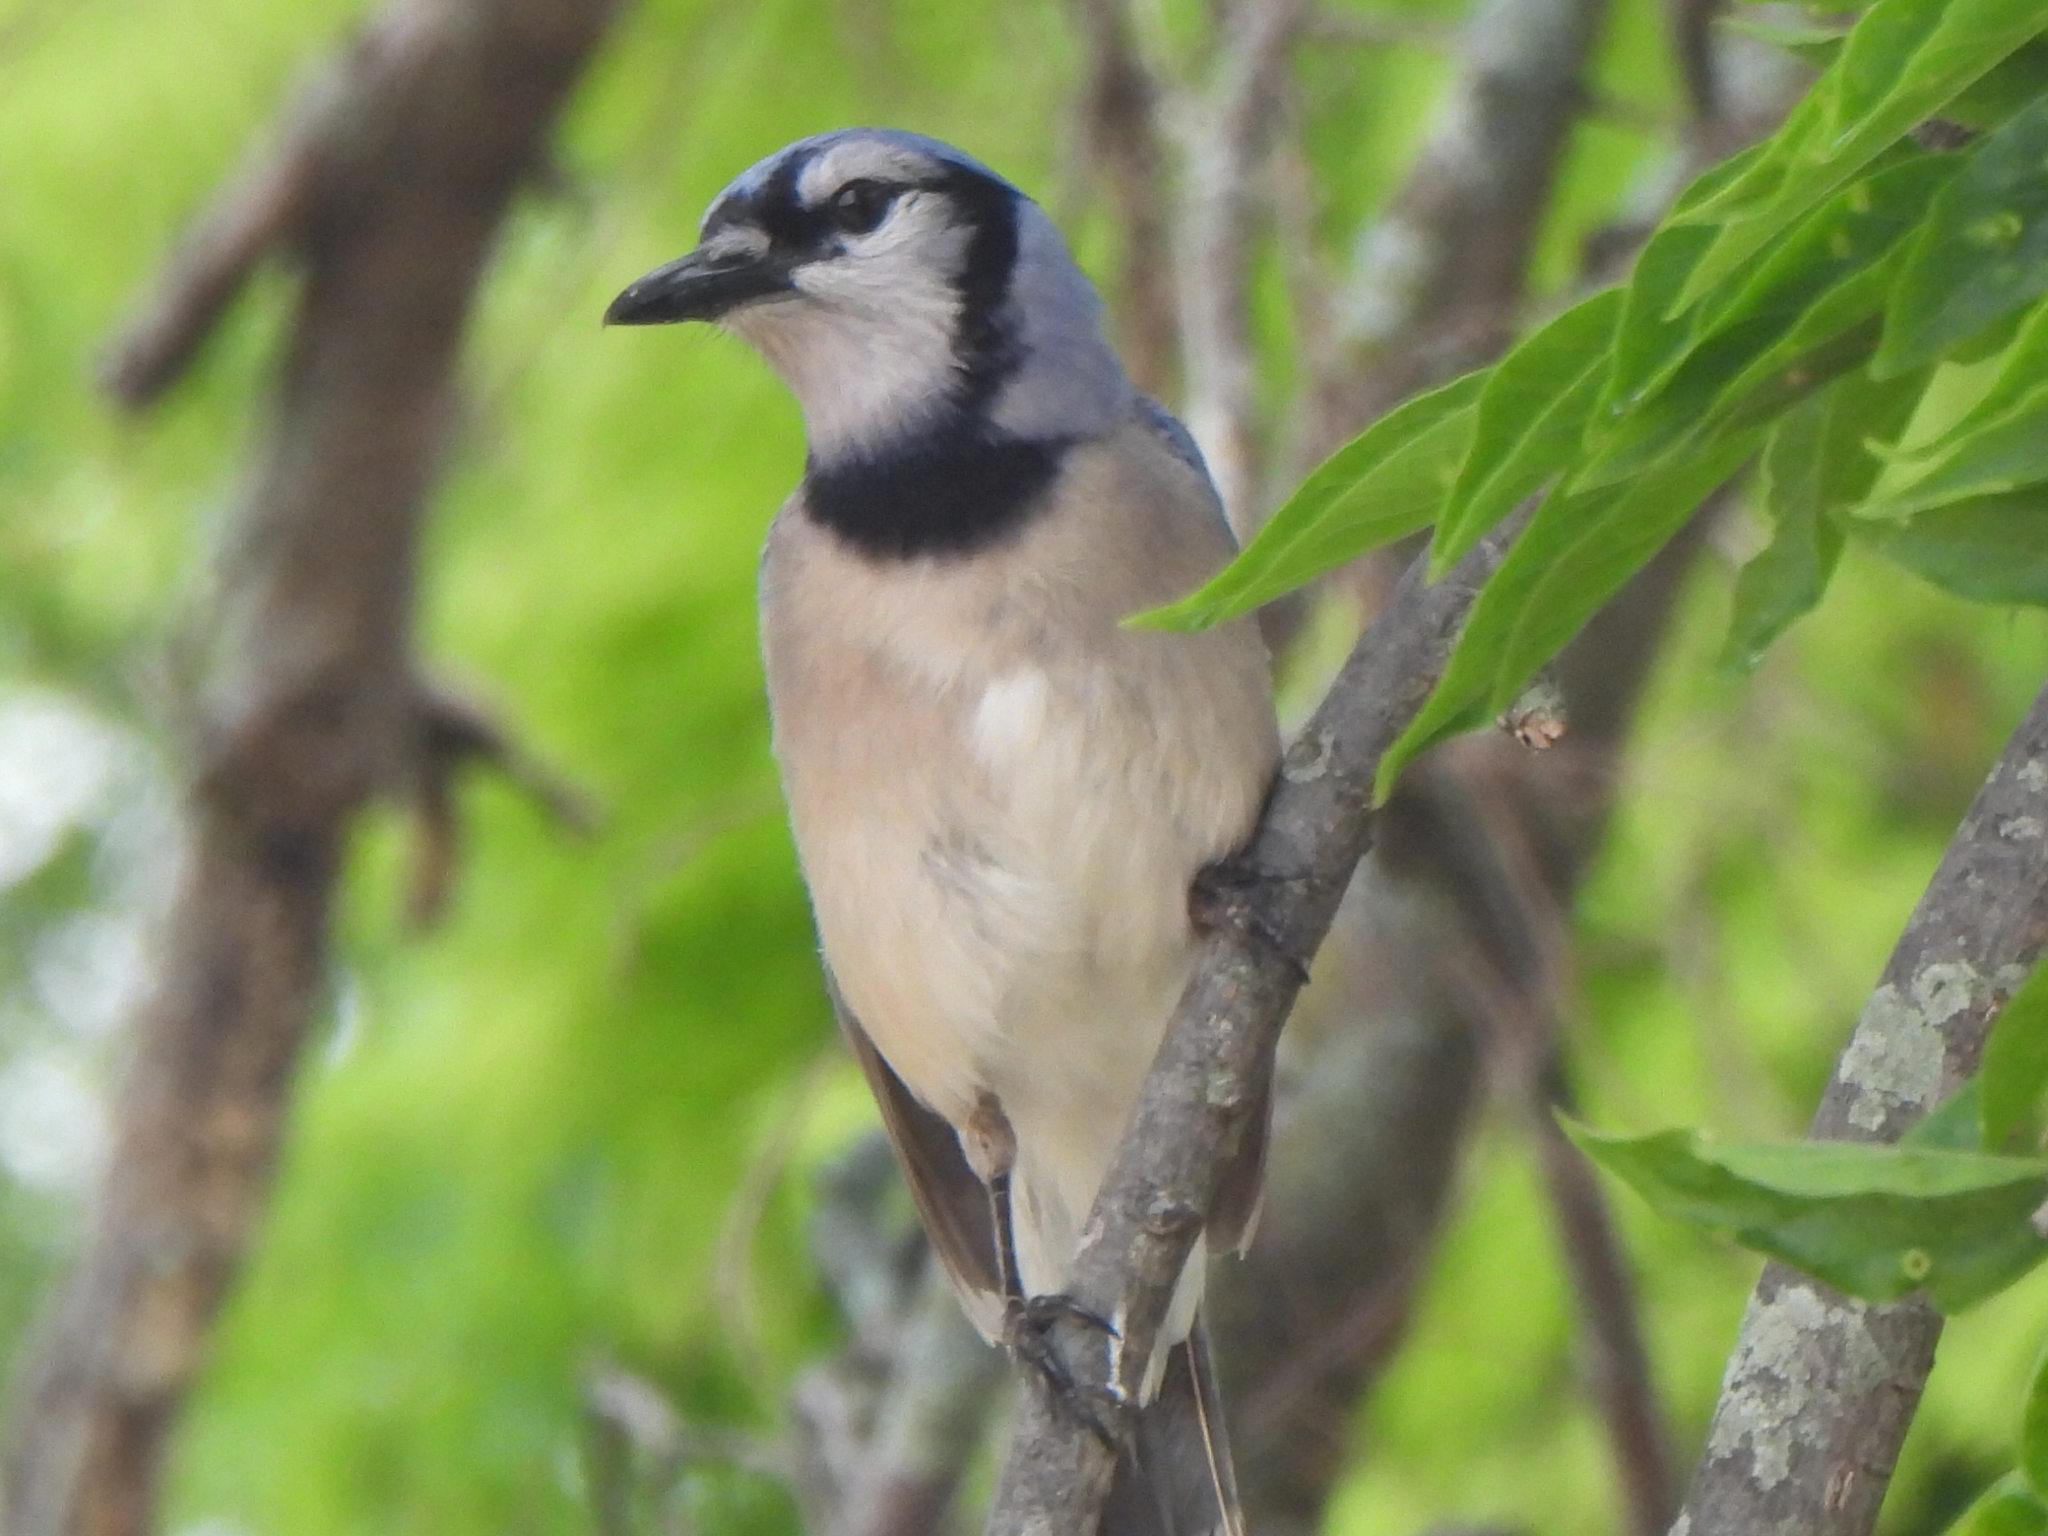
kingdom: Animalia
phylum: Chordata
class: Aves
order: Passeriformes
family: Corvidae
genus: Cyanocitta
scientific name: Cyanocitta cristata
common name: Blue jay
